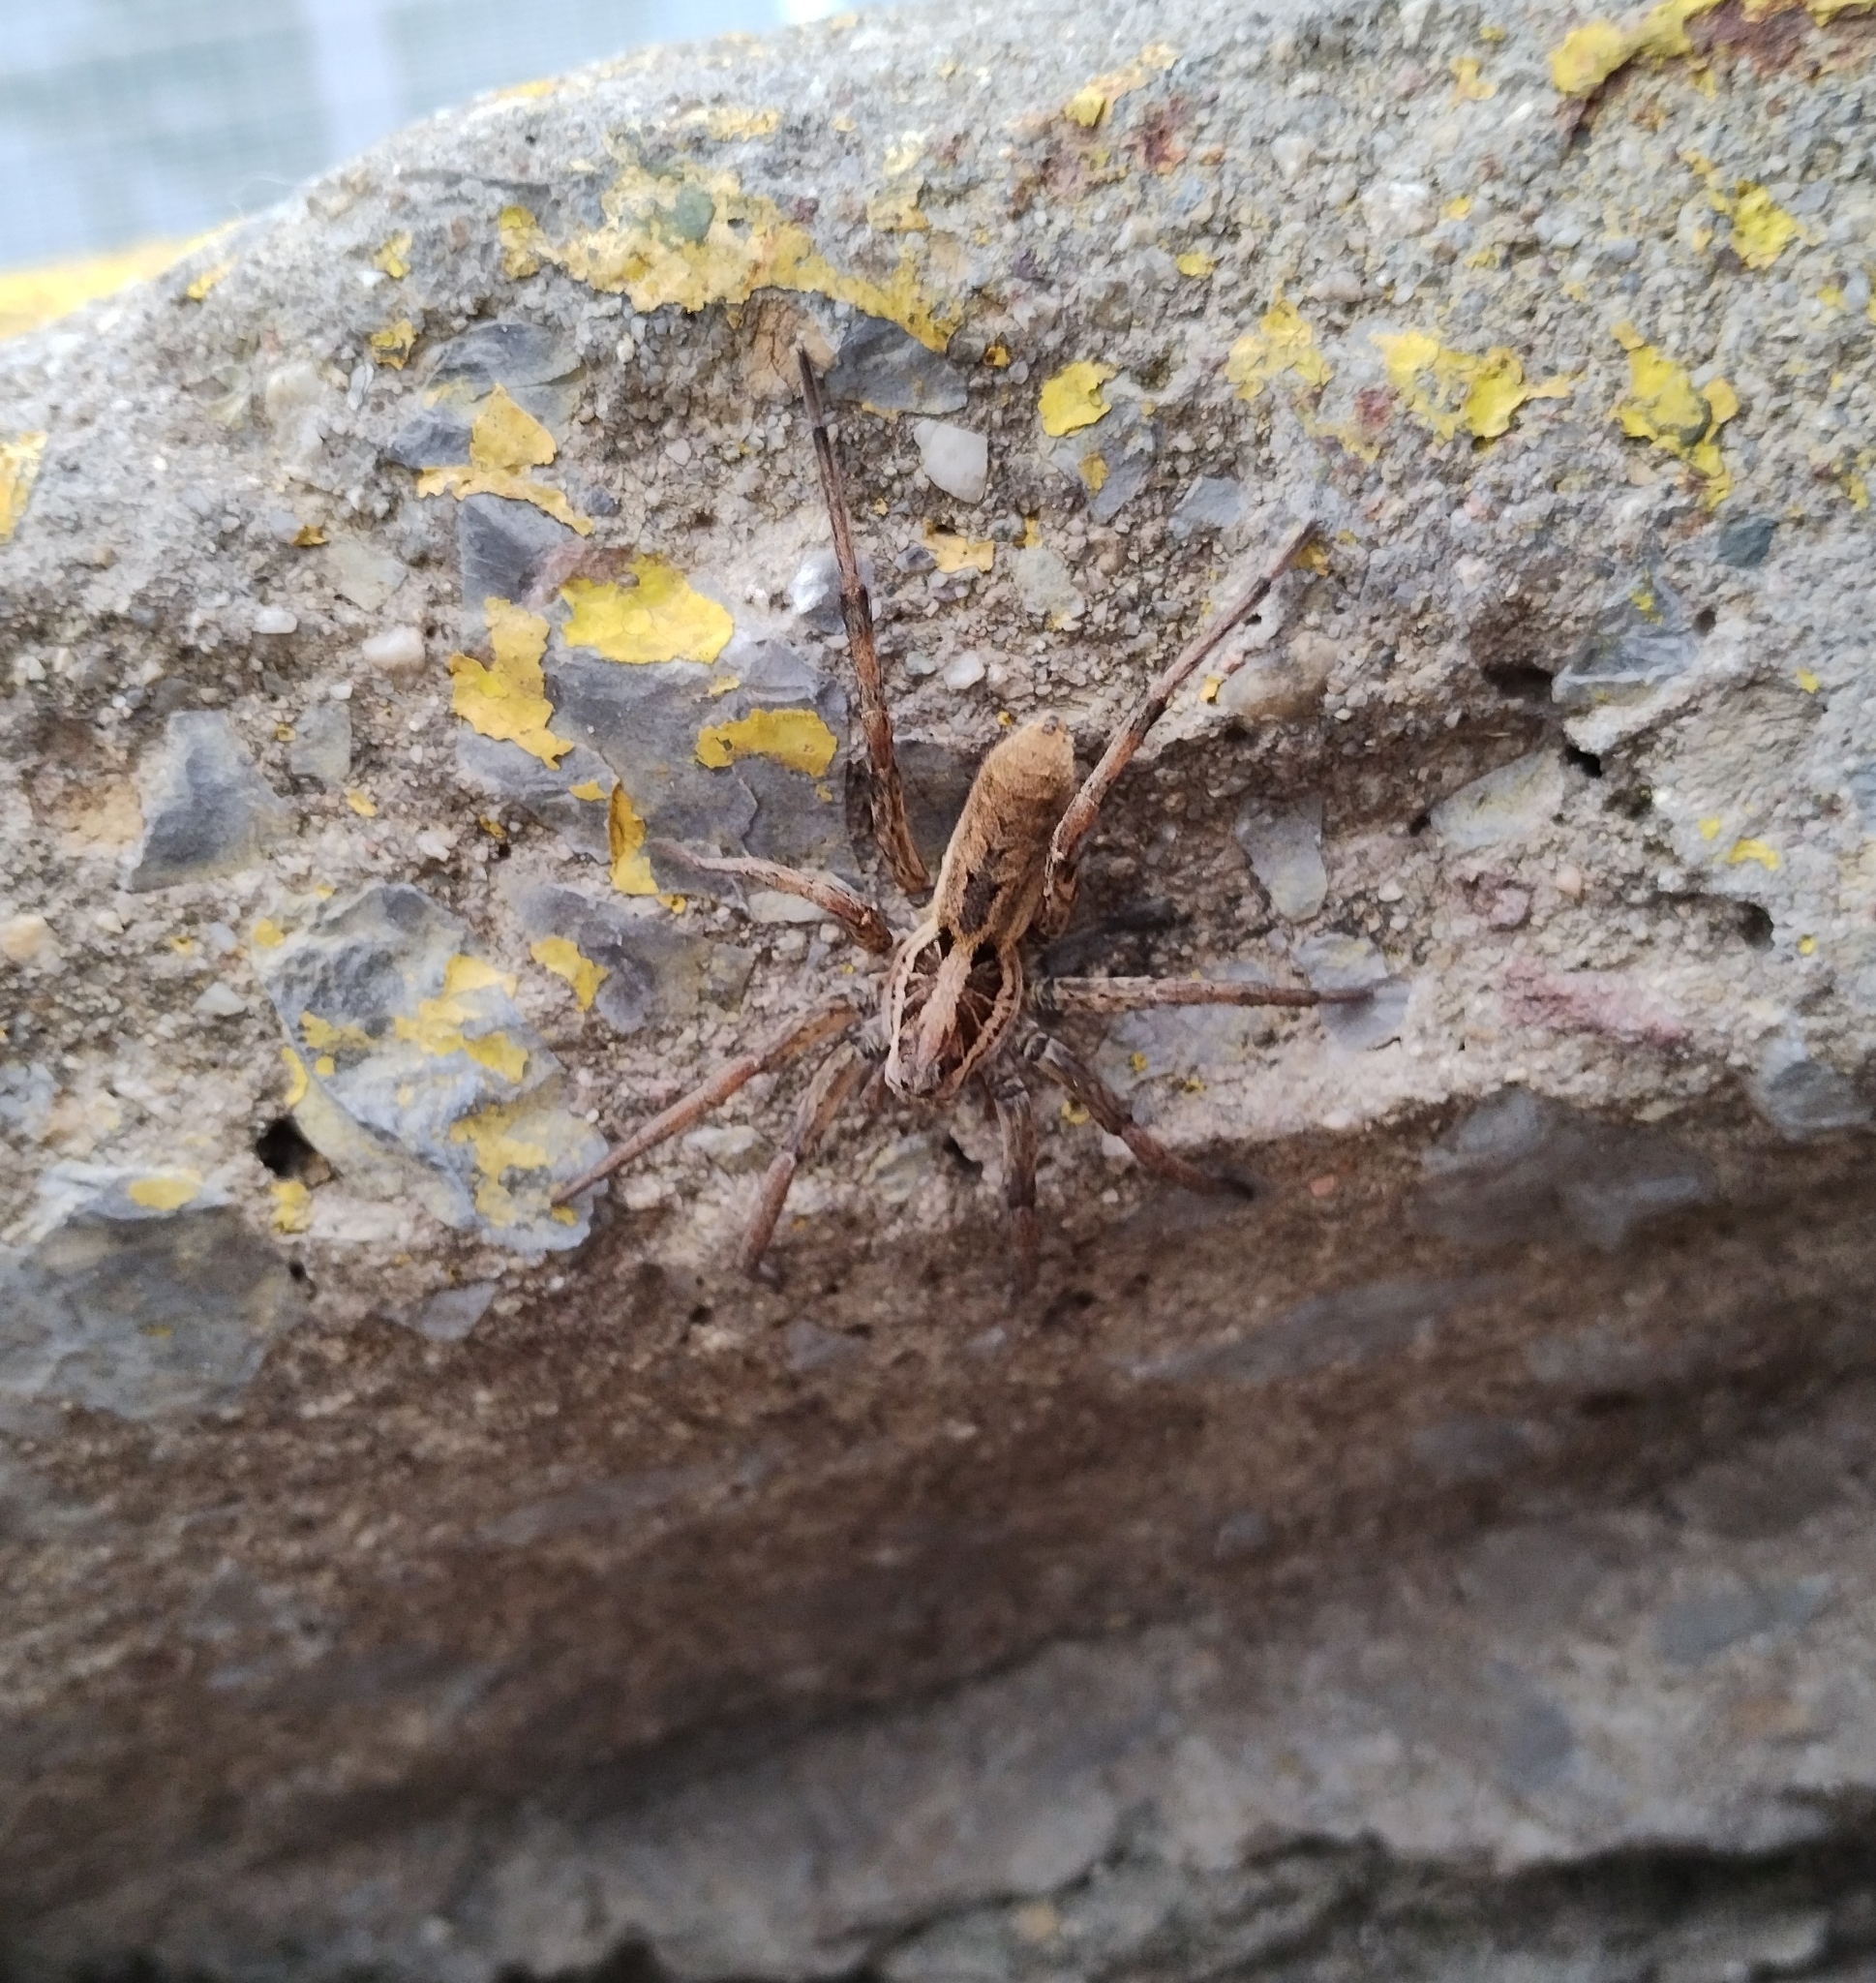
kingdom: Animalia
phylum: Arthropoda
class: Arachnida
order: Araneae
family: Lycosidae
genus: Hogna
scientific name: Hogna radiata
